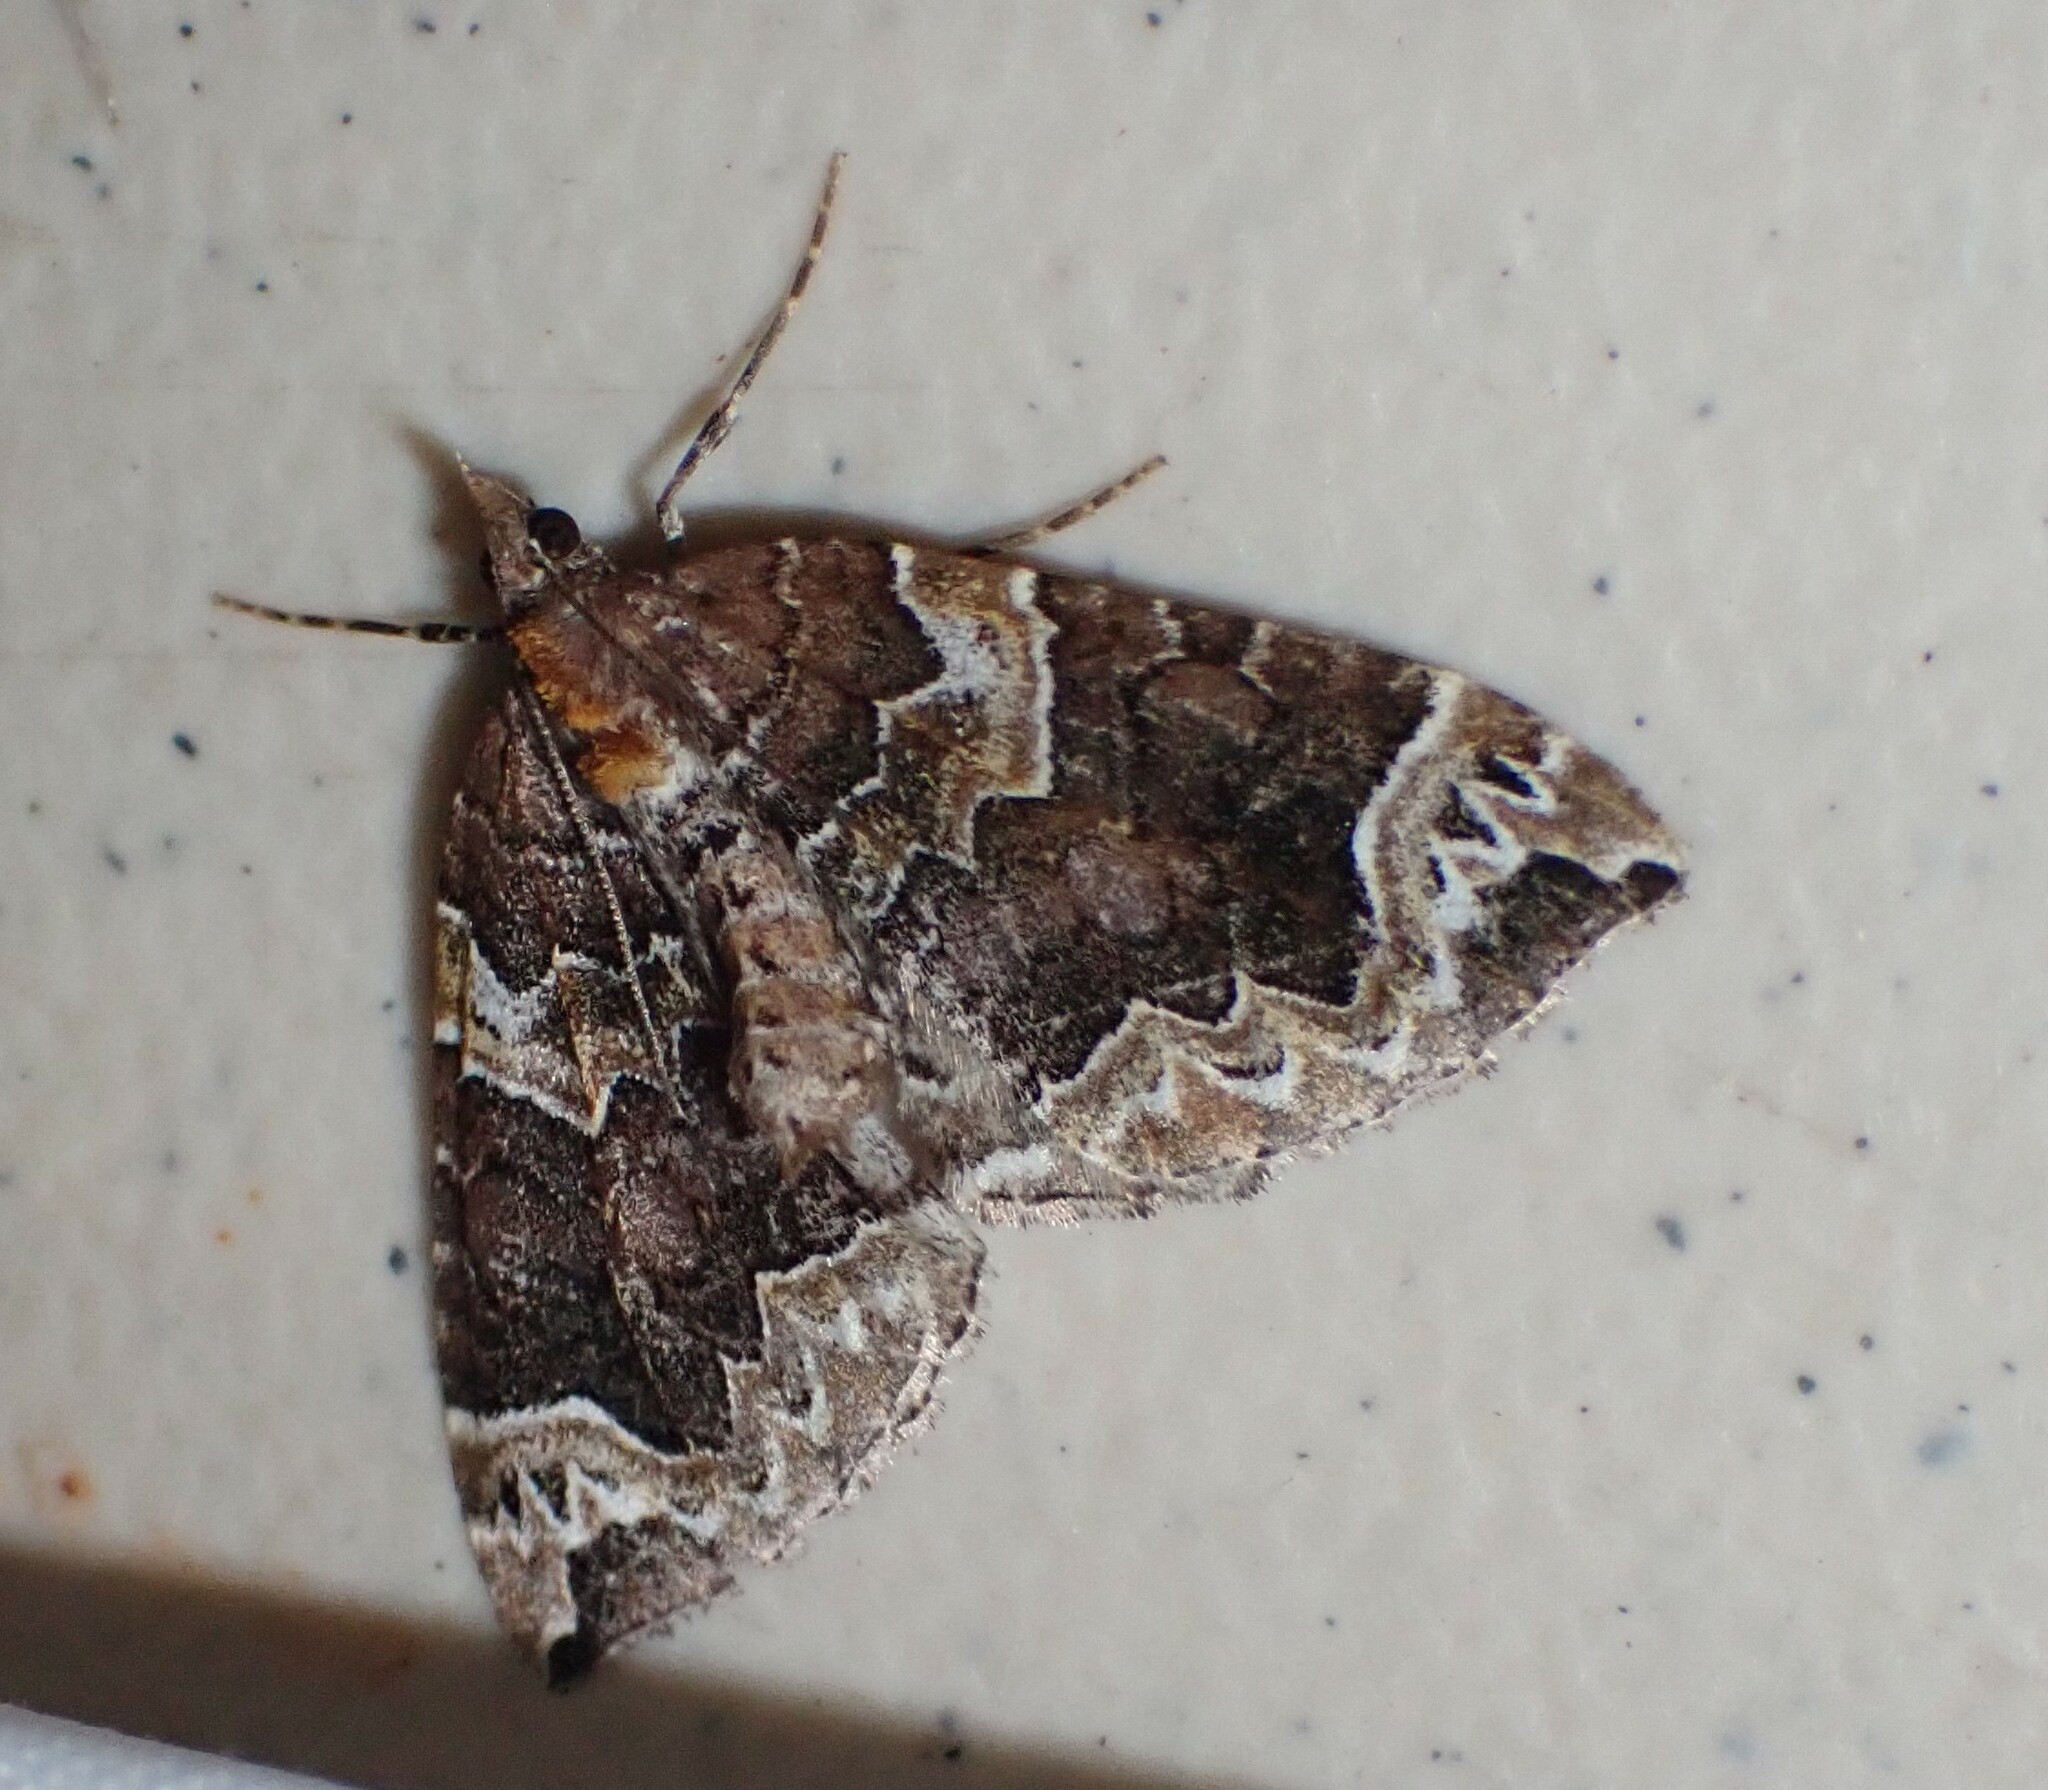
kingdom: Animalia
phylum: Arthropoda
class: Insecta
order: Lepidoptera
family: Geometridae
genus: Eulithis
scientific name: Eulithis xylina
